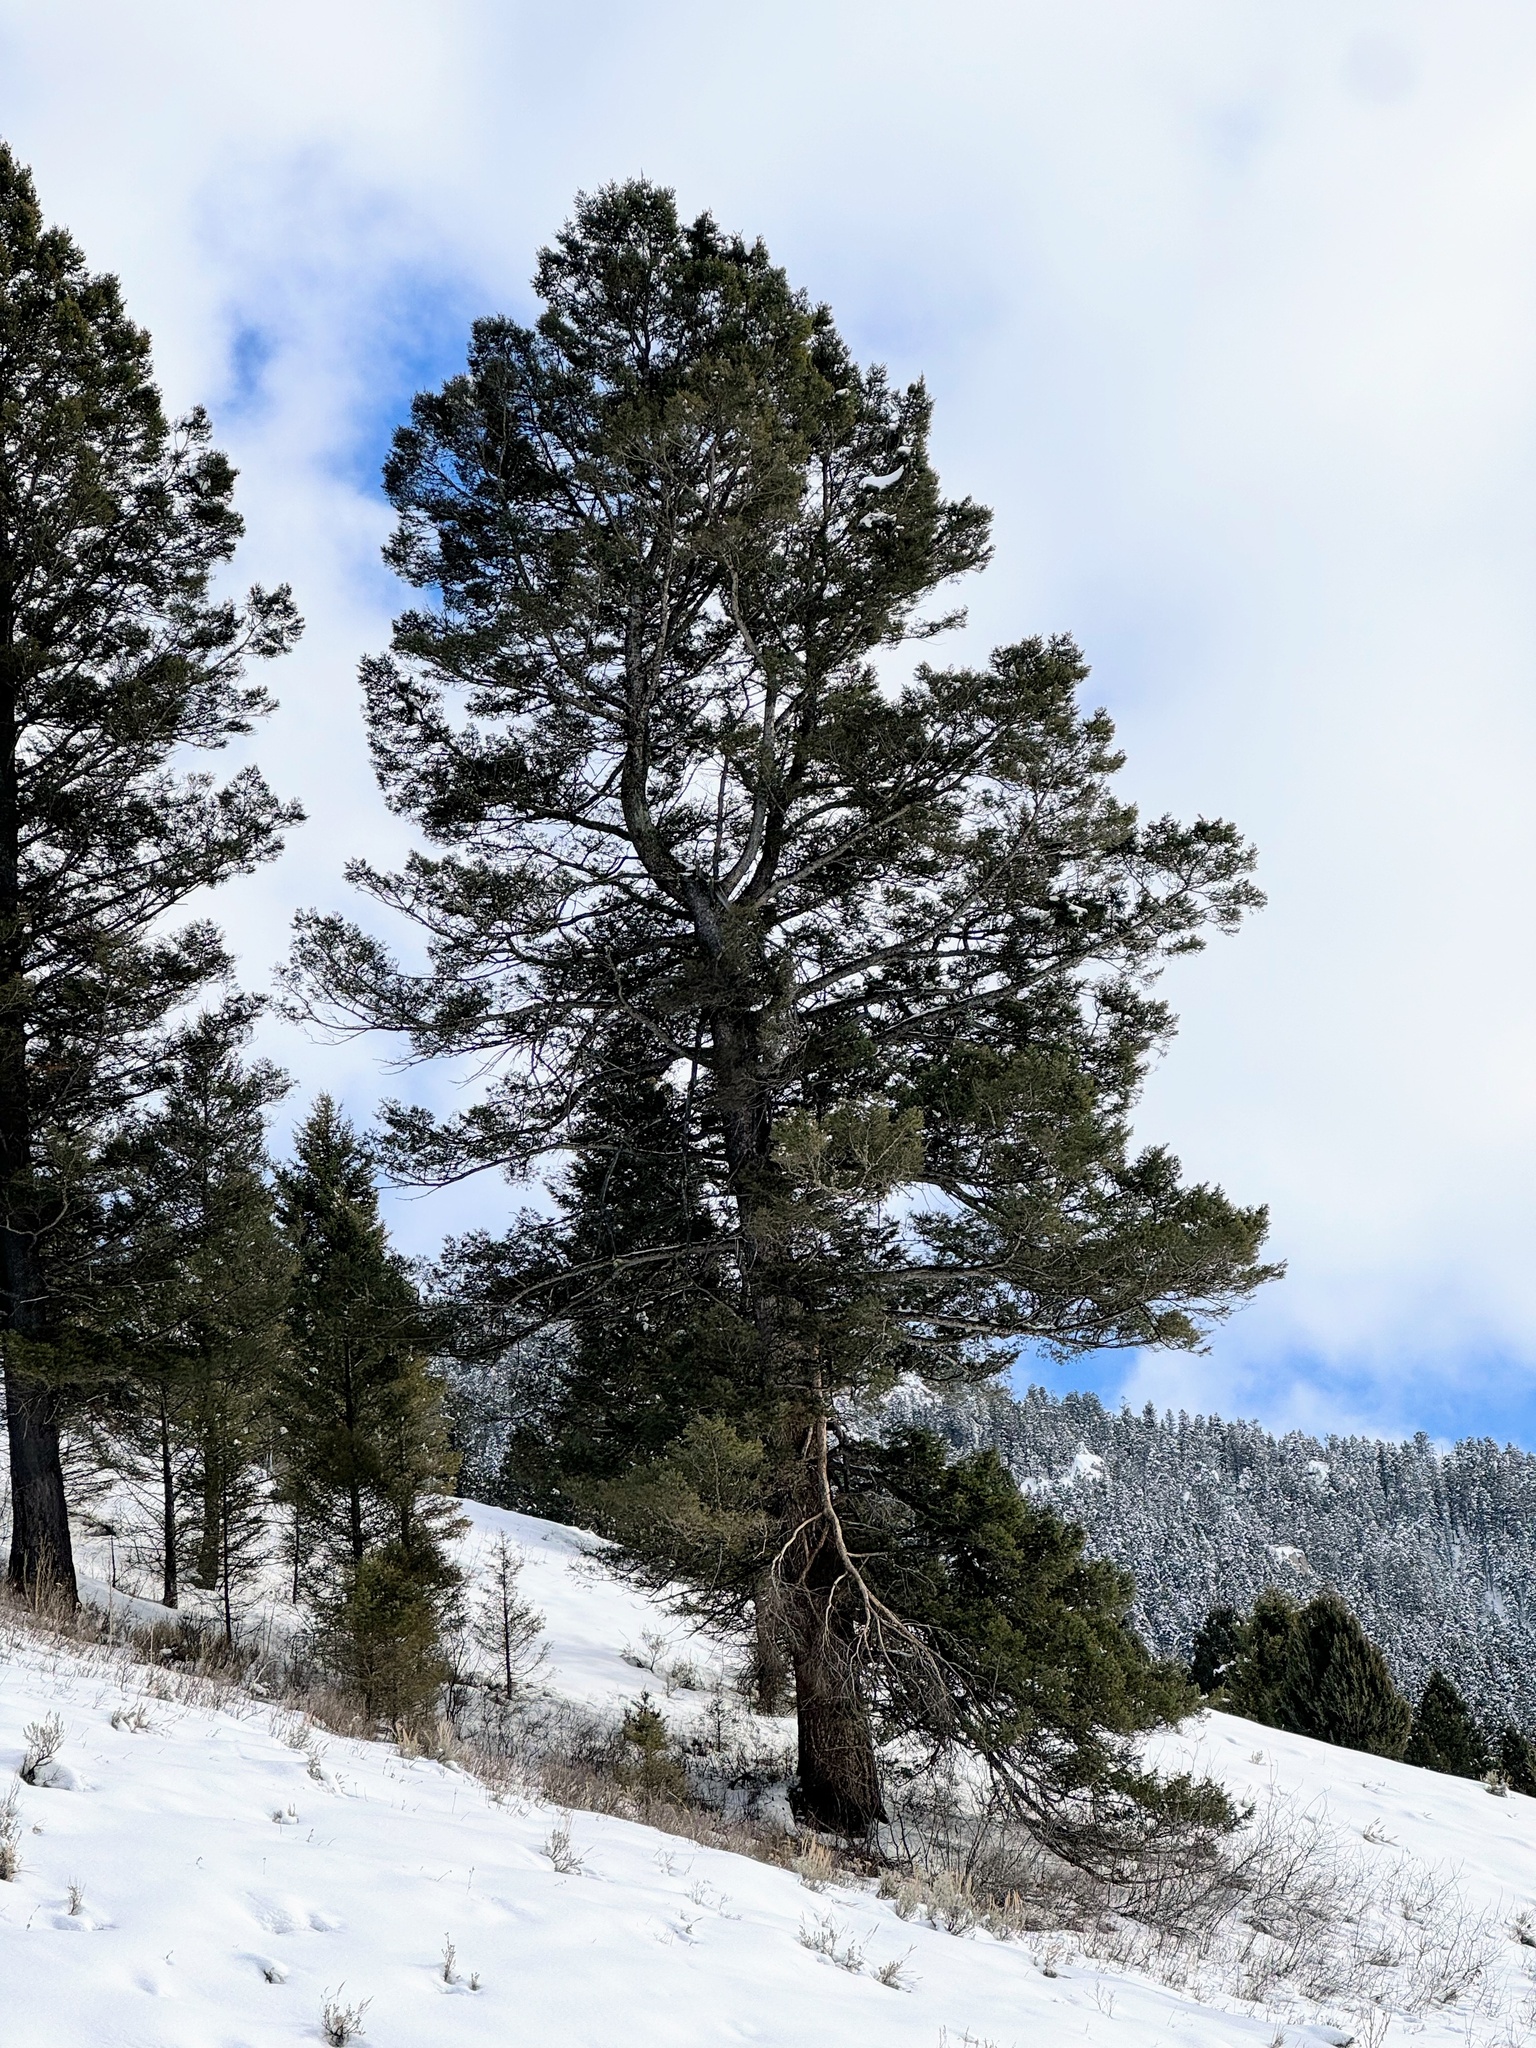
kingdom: Plantae
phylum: Tracheophyta
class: Pinopsida
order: Pinales
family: Pinaceae
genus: Pseudotsuga
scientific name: Pseudotsuga menziesii
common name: Douglas fir
